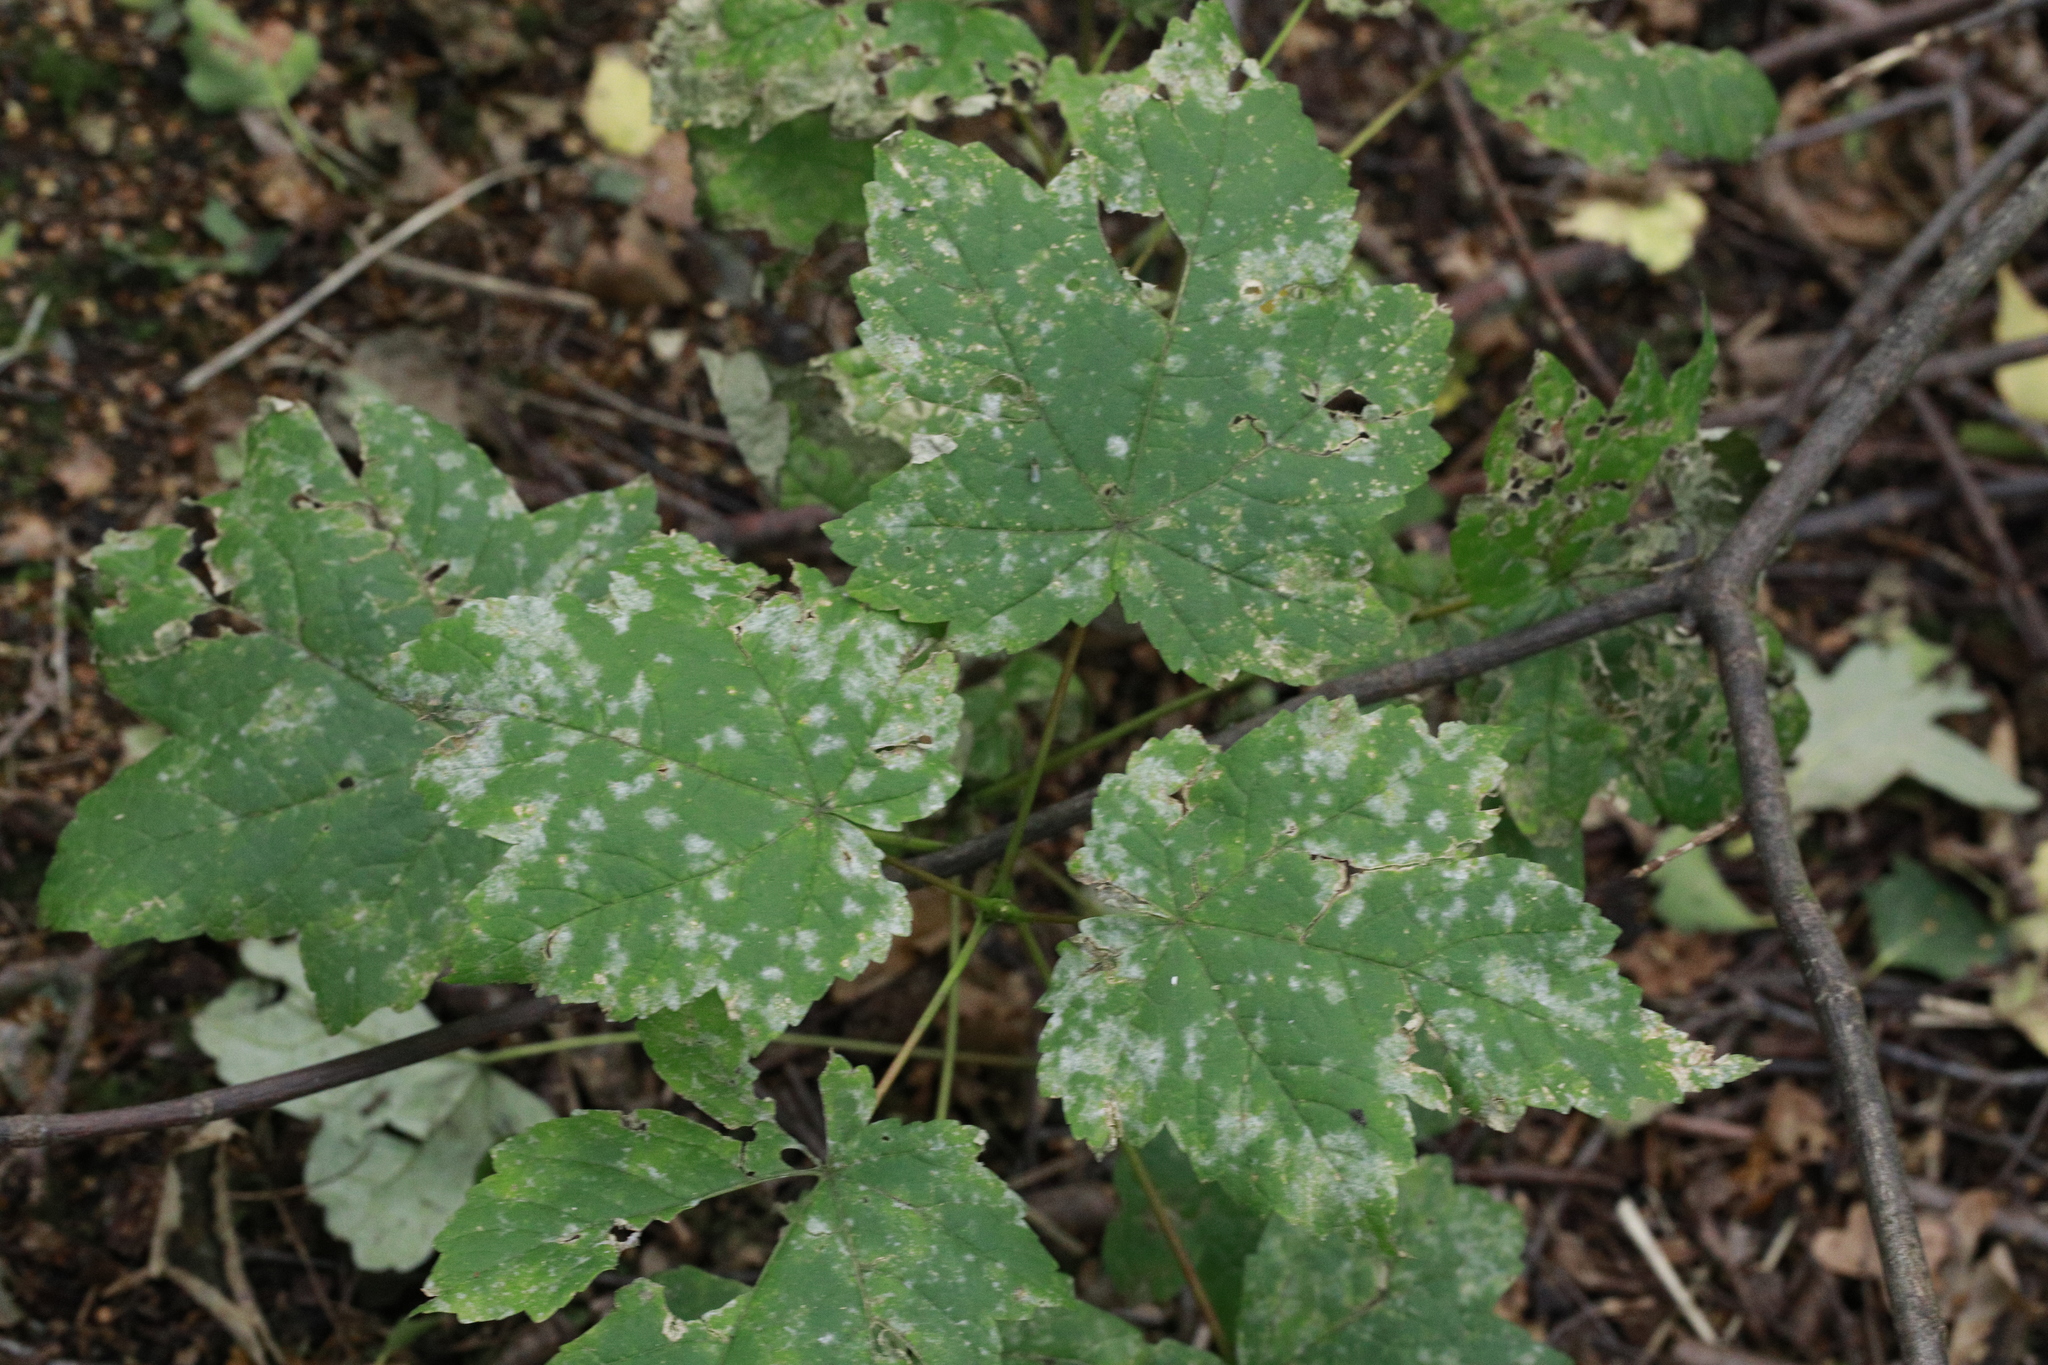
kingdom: Fungi
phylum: Ascomycota
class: Leotiomycetes
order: Helotiales
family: Erysiphaceae
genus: Sawadaea
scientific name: Sawadaea bicornis
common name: Maple mildew
